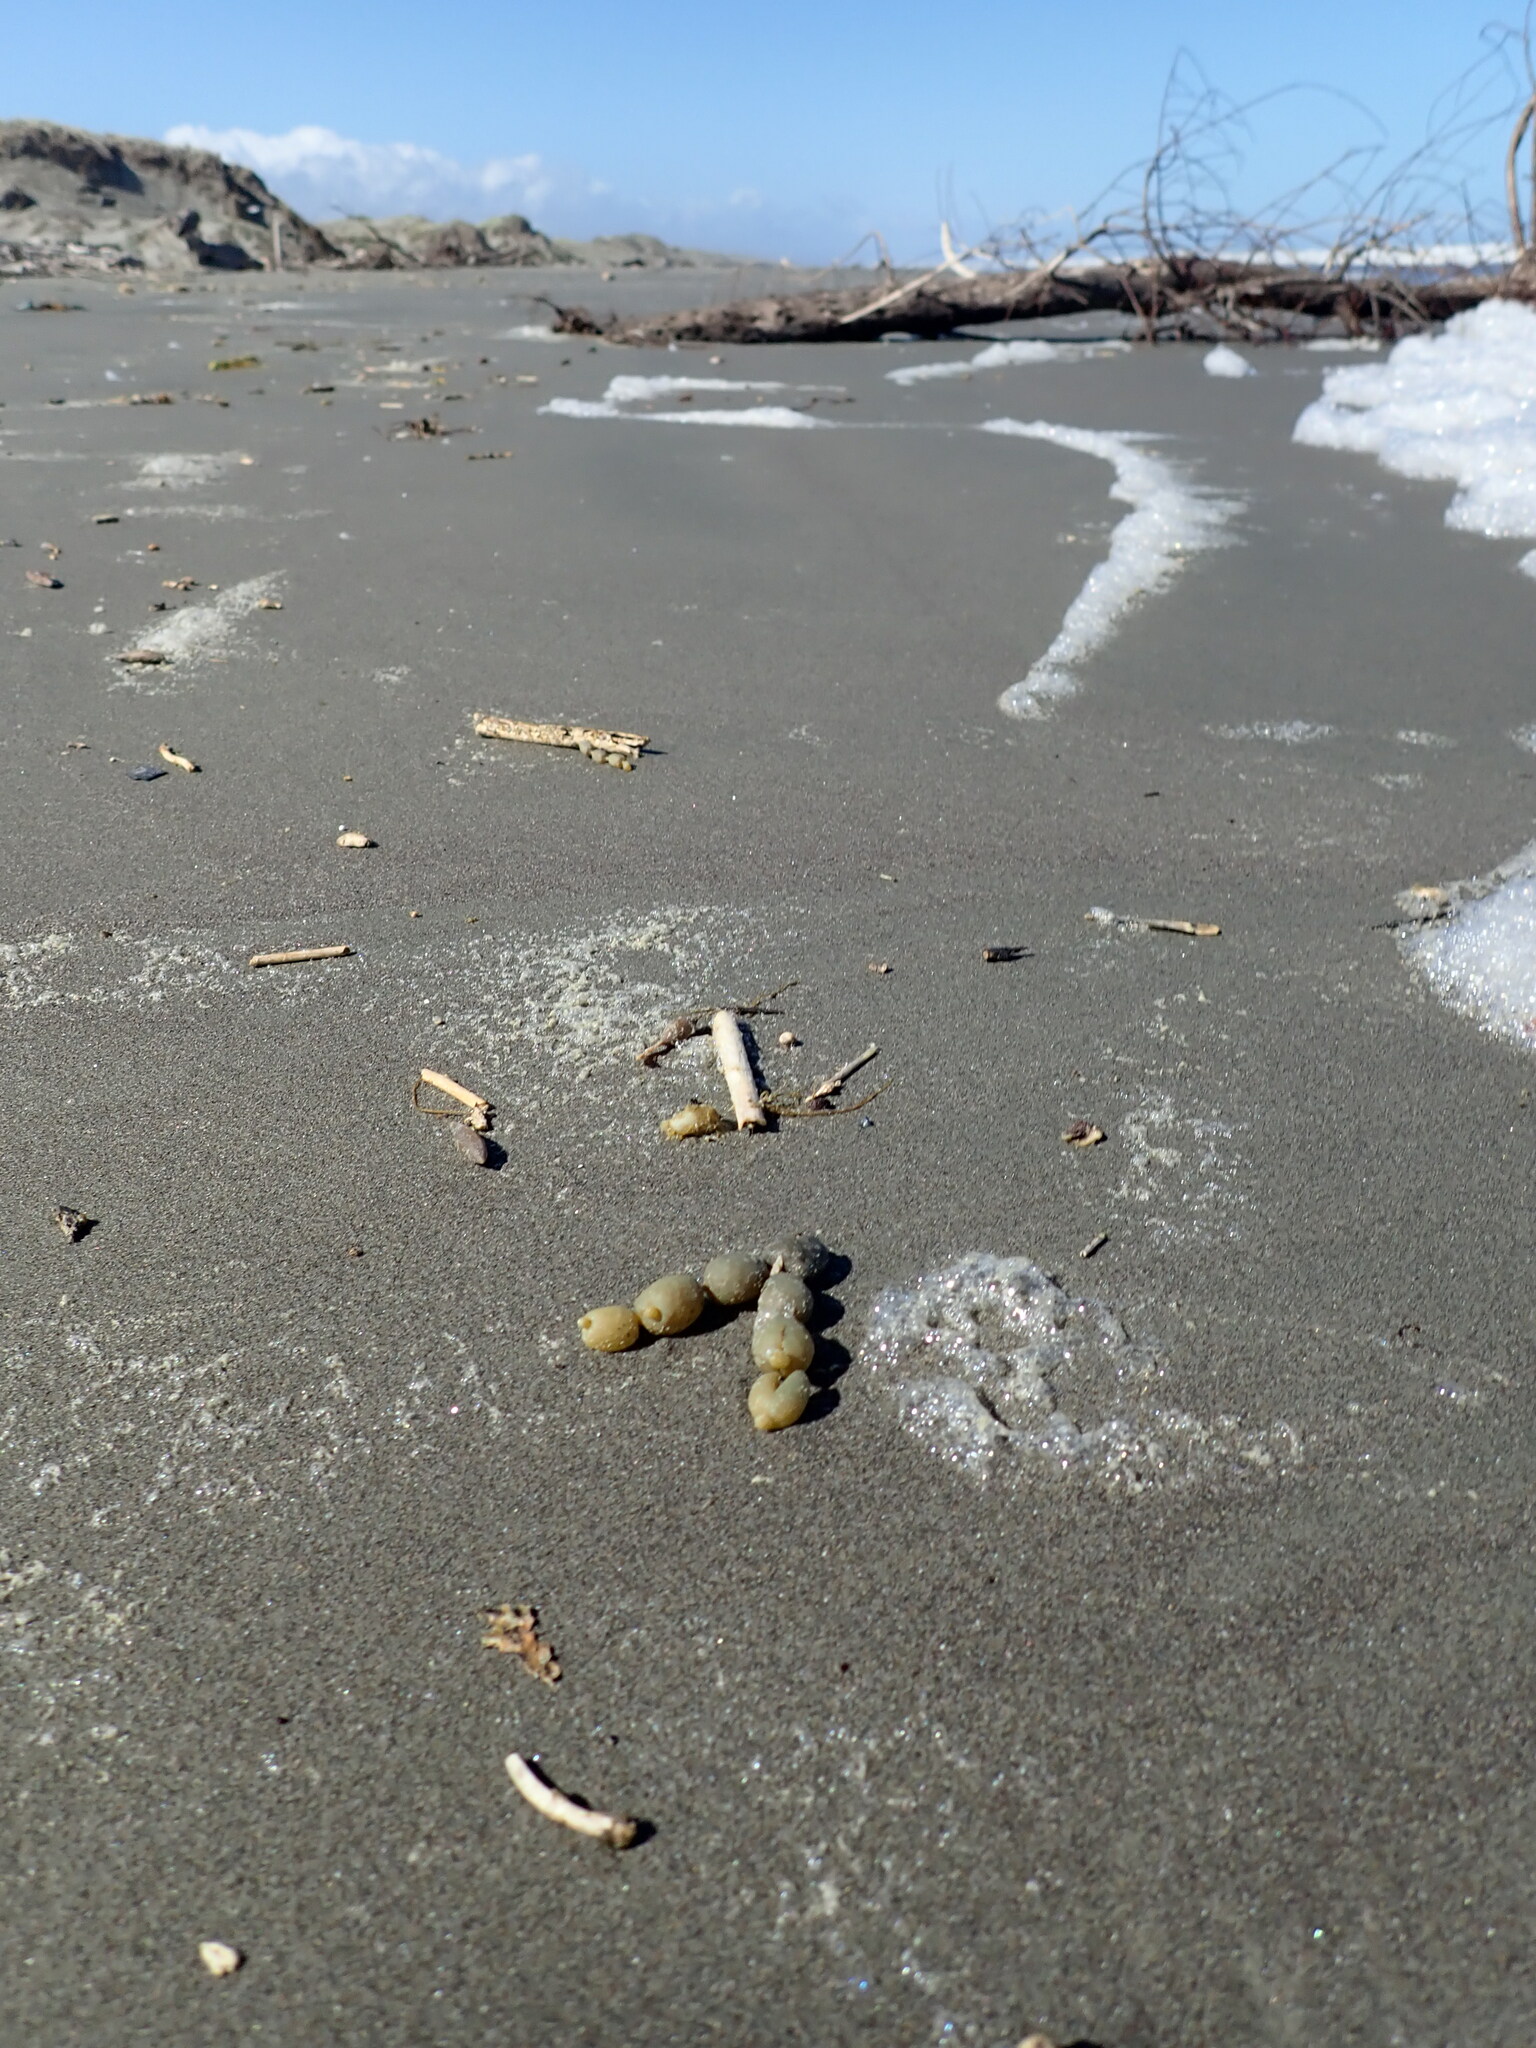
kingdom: Chromista
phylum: Ochrophyta
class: Phaeophyceae
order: Fucales
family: Hormosiraceae
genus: Hormosira
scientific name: Hormosira banksii
